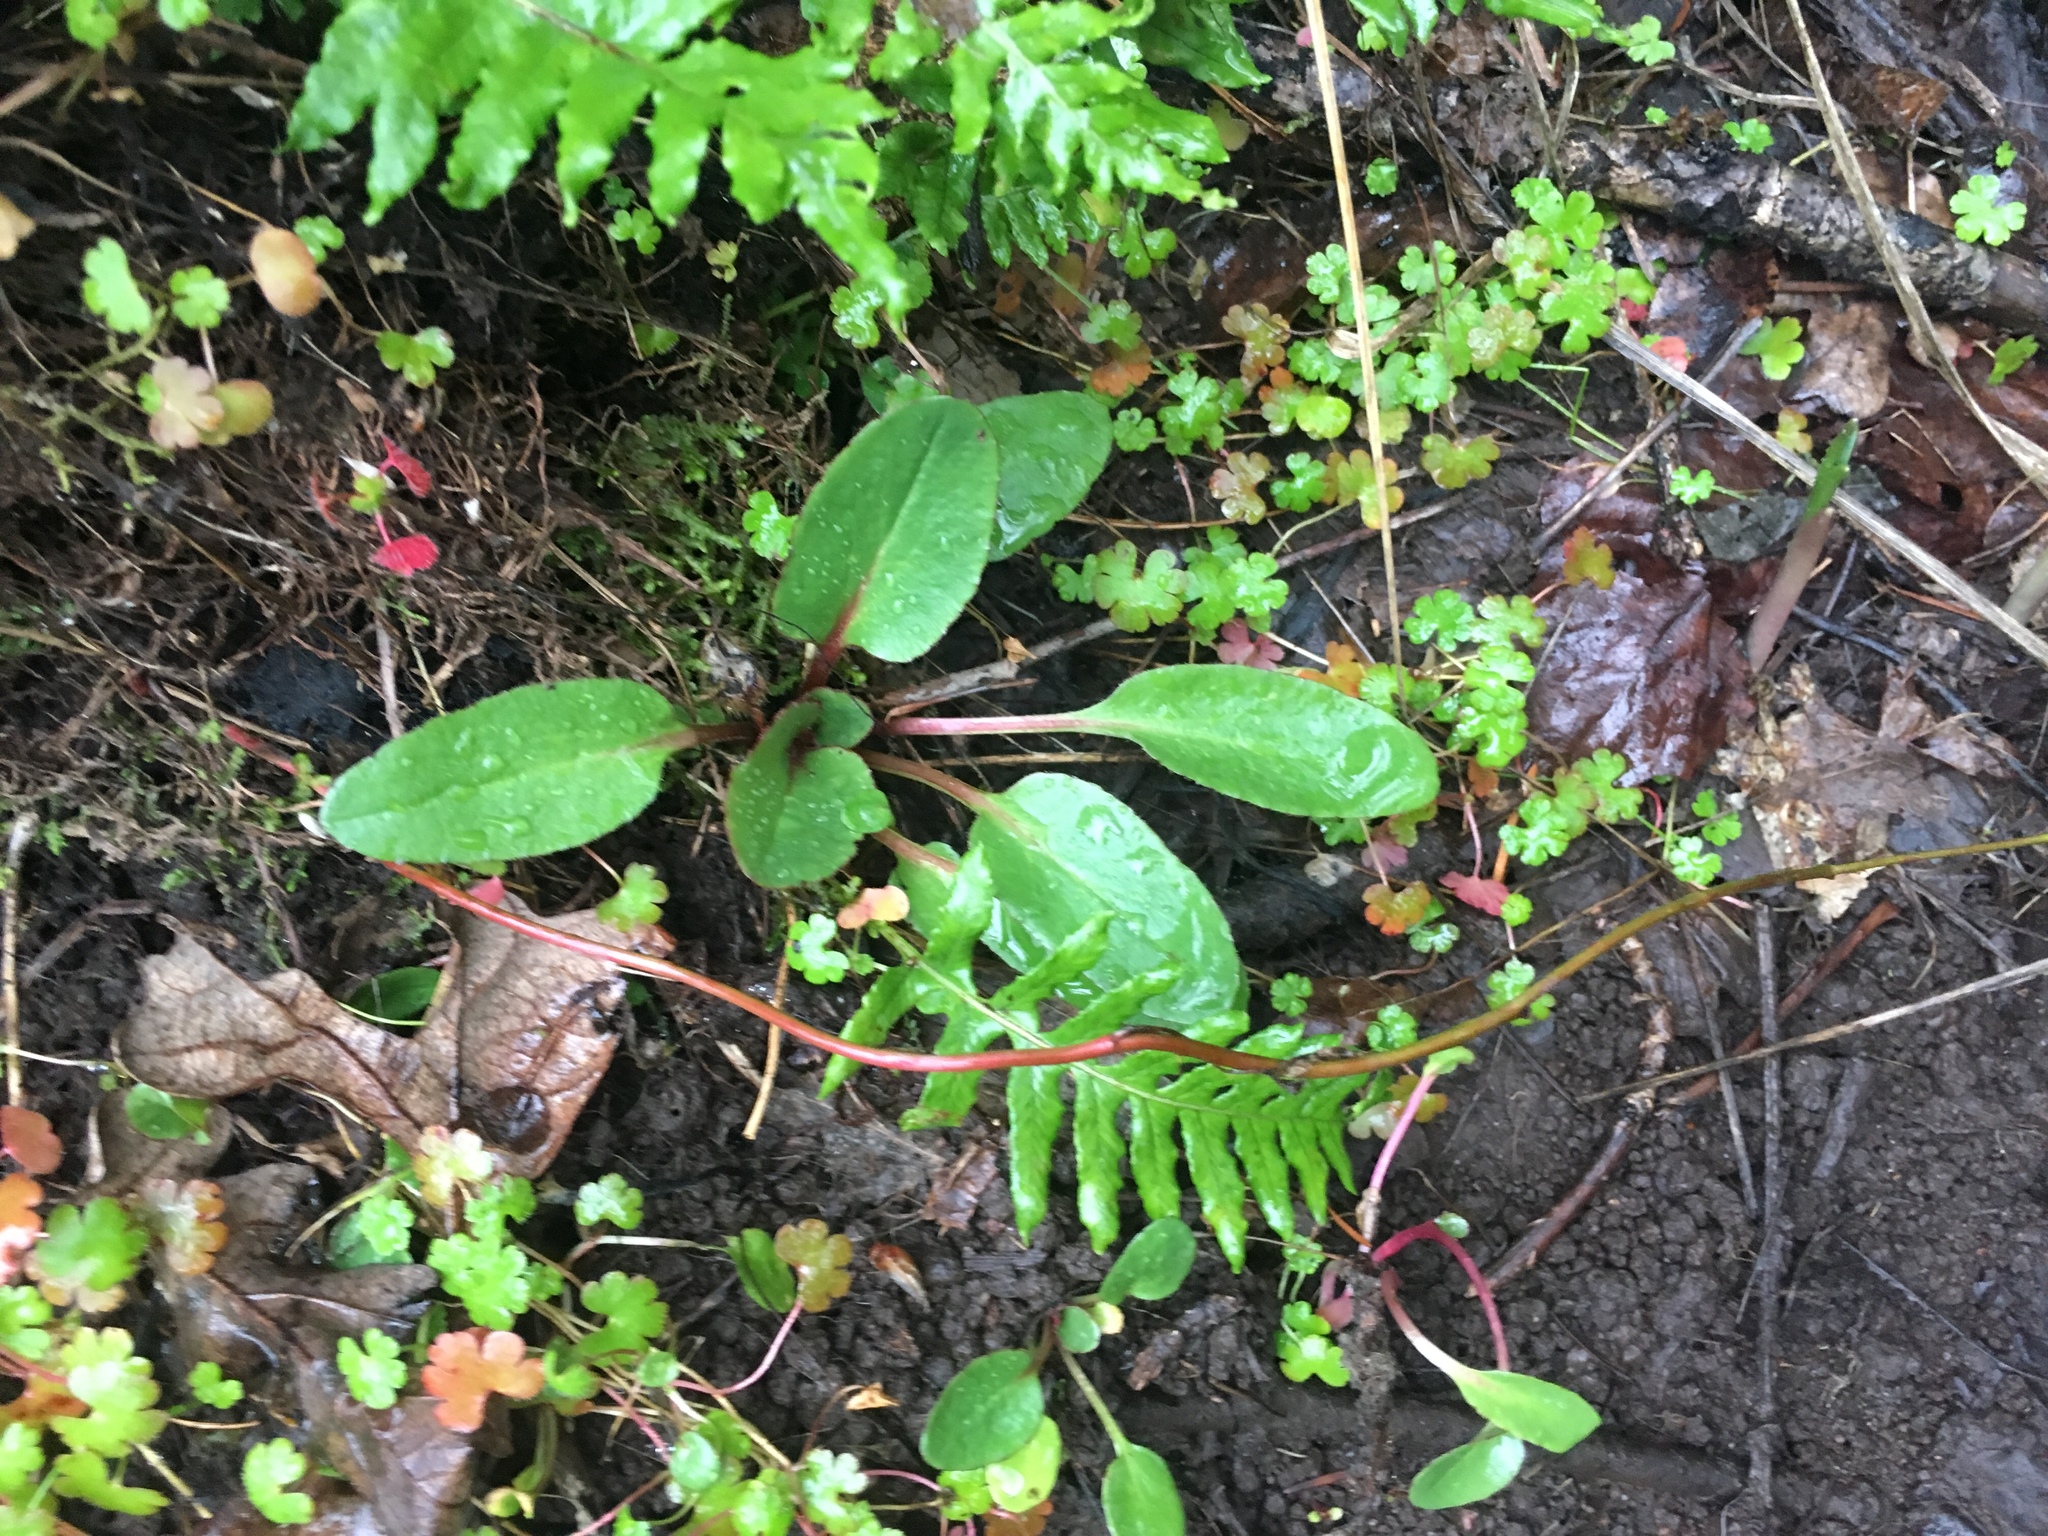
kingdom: Plantae
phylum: Tracheophyta
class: Magnoliopsida
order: Asterales
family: Asteraceae
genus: Senecio
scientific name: Senecio integerrimus
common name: Gaugeplant
